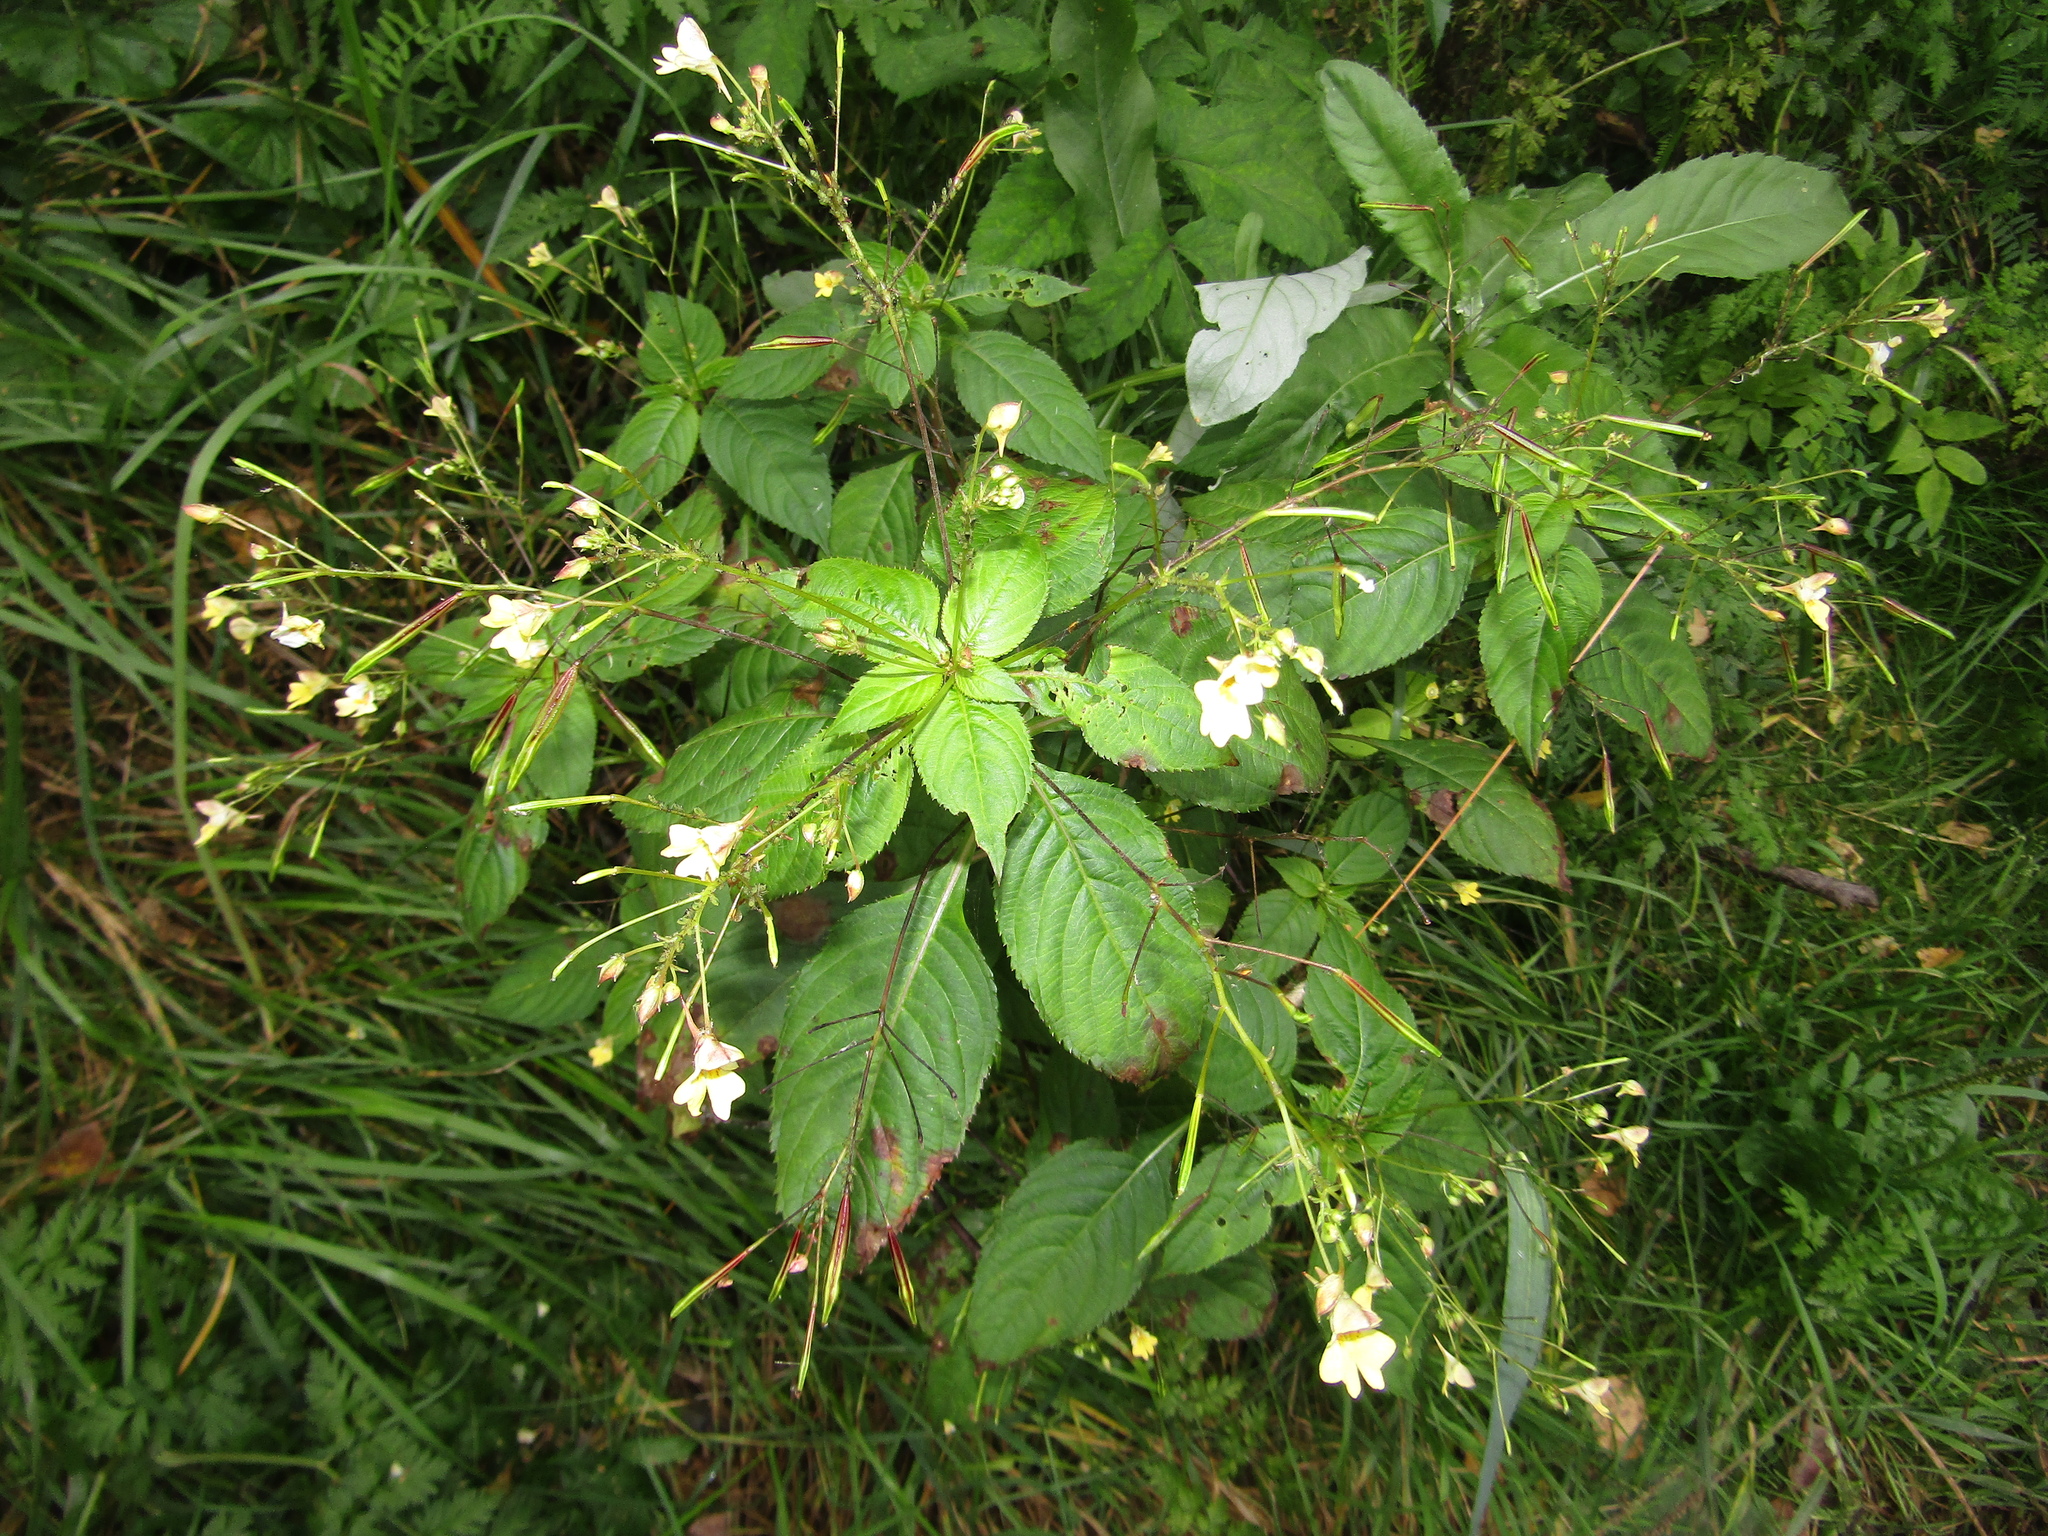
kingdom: Plantae
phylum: Tracheophyta
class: Magnoliopsida
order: Ericales
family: Balsaminaceae
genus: Impatiens
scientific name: Impatiens parviflora
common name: Small balsam
